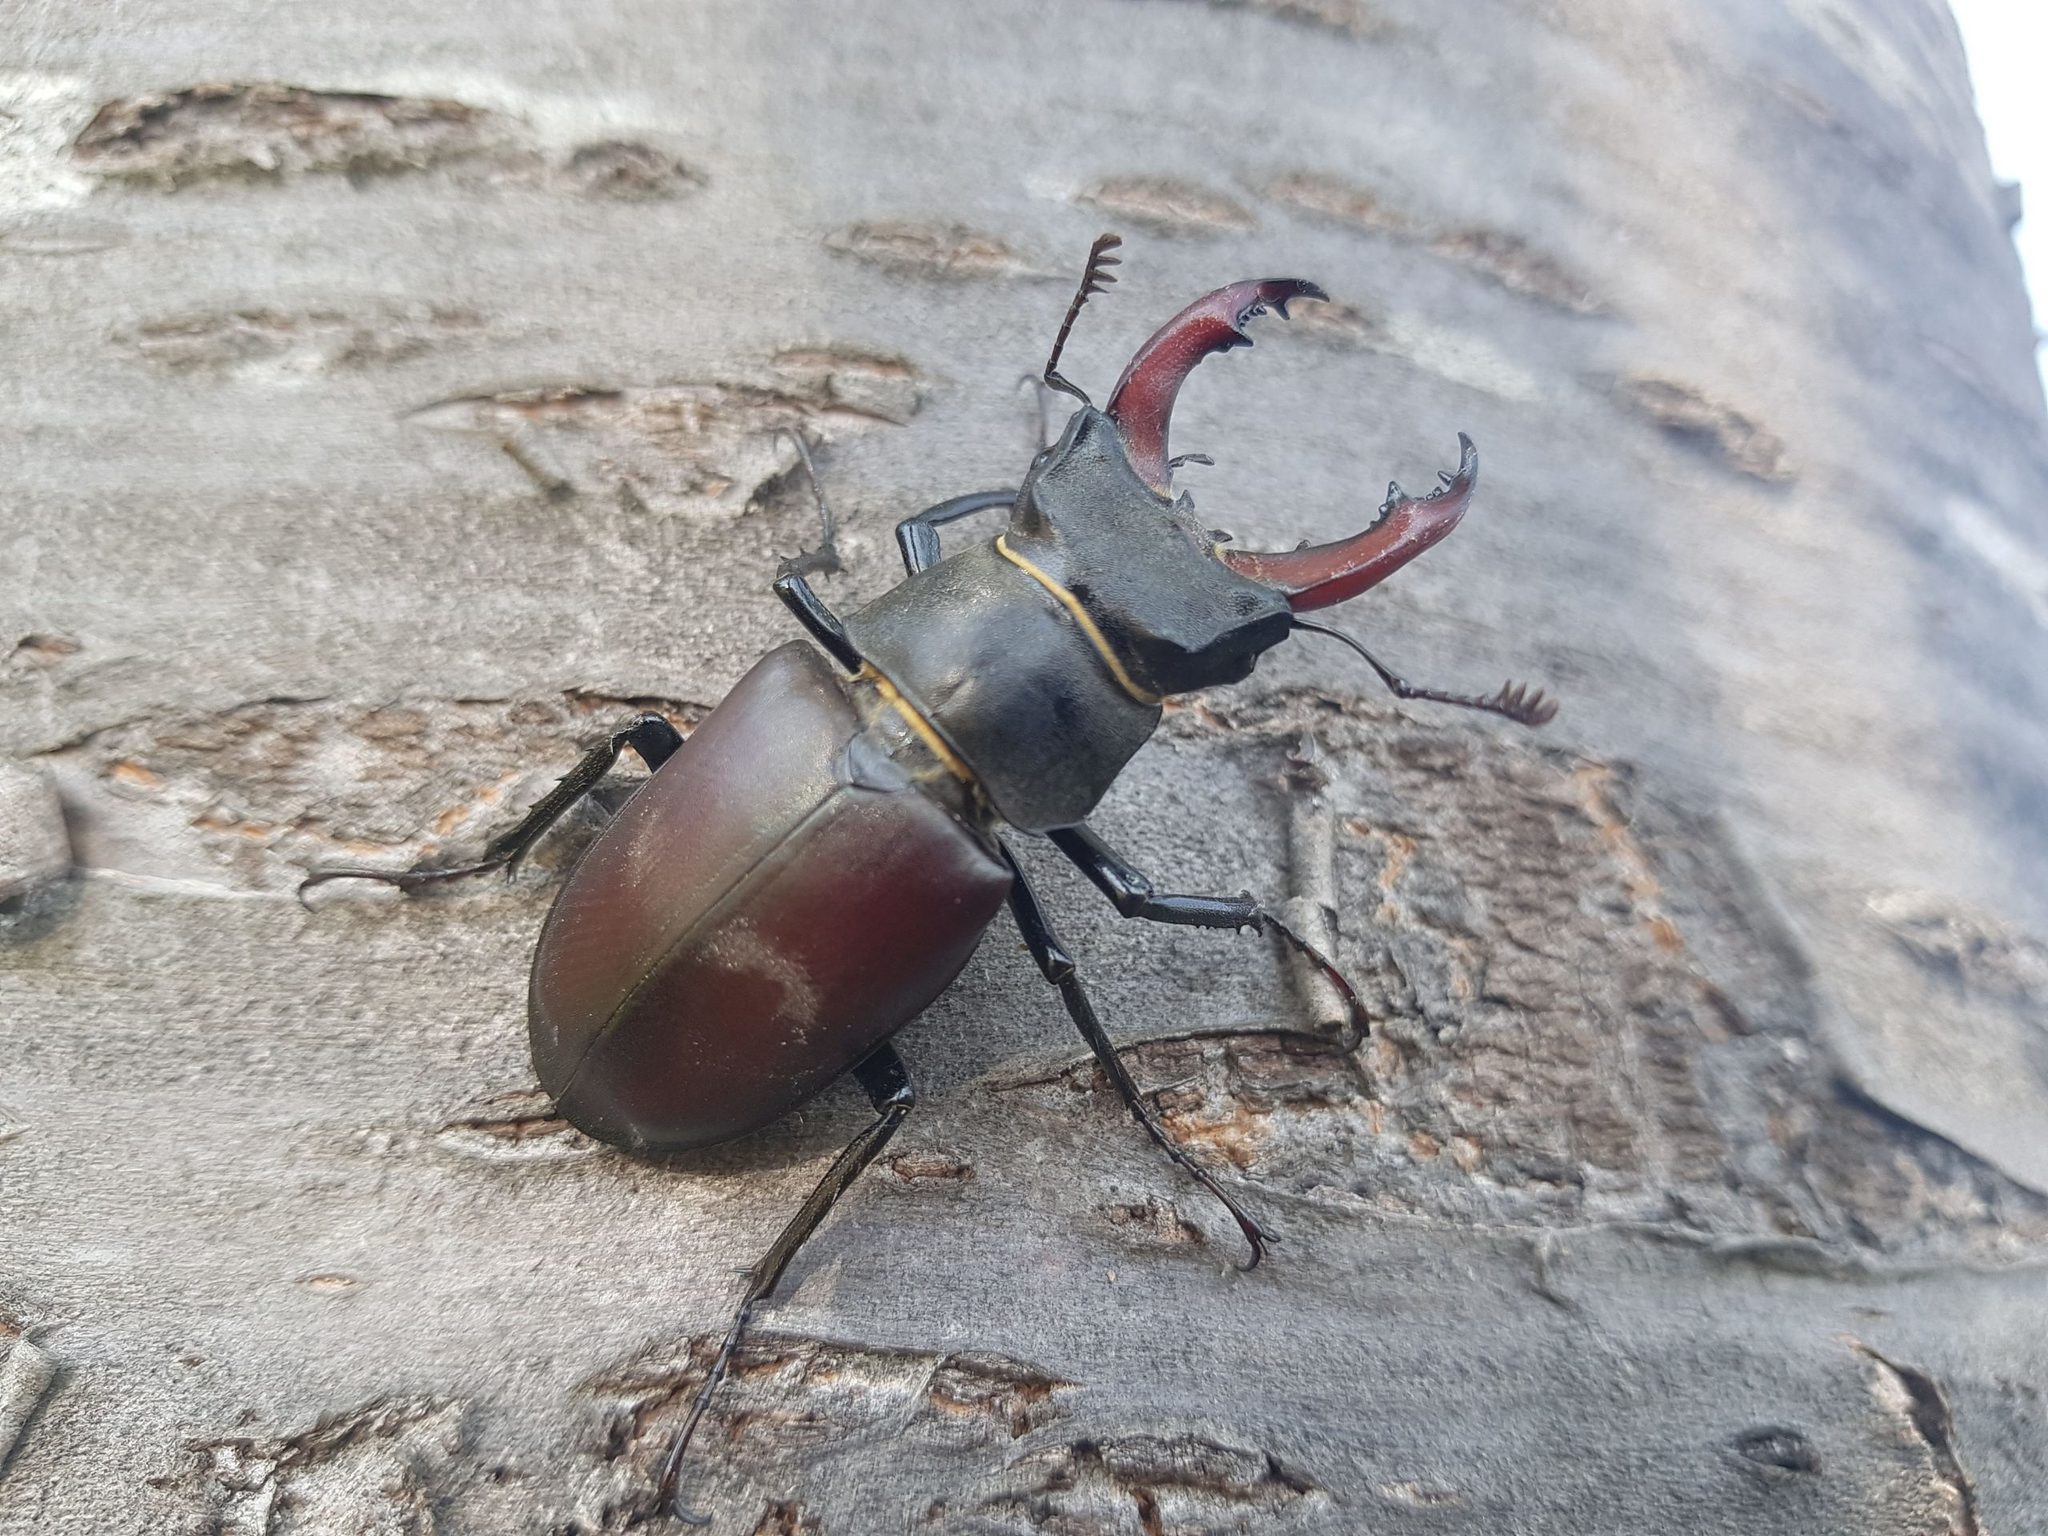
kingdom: Animalia
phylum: Arthropoda
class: Insecta
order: Coleoptera
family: Lucanidae
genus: Lucanus
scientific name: Lucanus cervus
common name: Stag beetle
